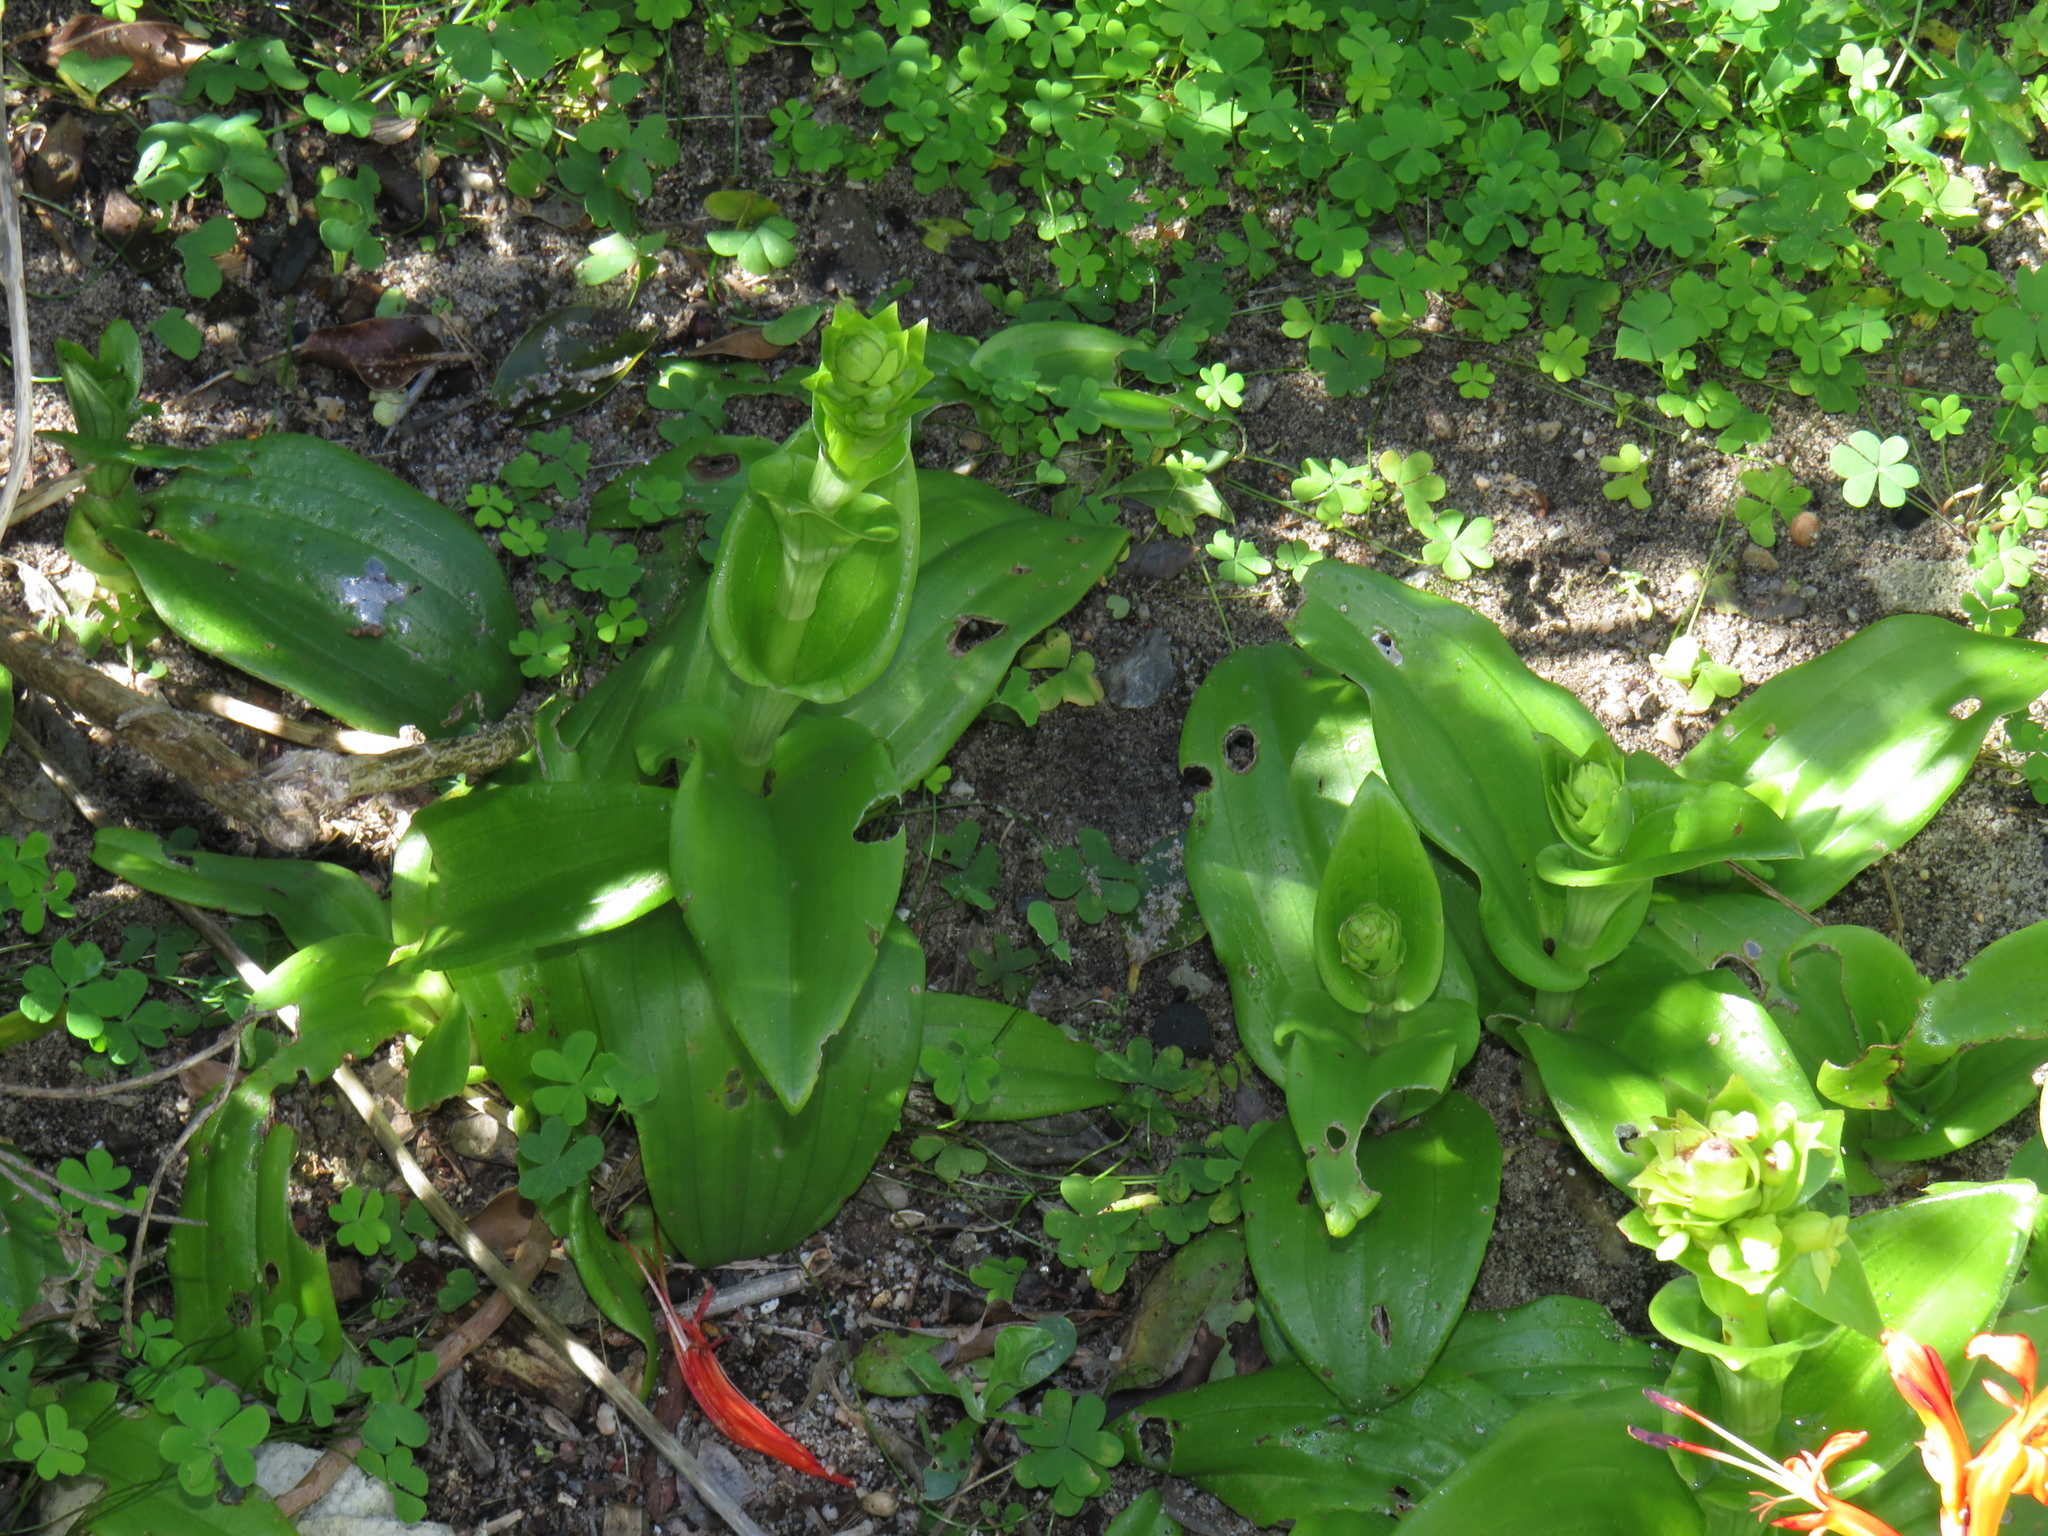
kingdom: Plantae
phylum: Tracheophyta
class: Liliopsida
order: Asparagales
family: Orchidaceae
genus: Satyrium
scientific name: Satyrium odorum
